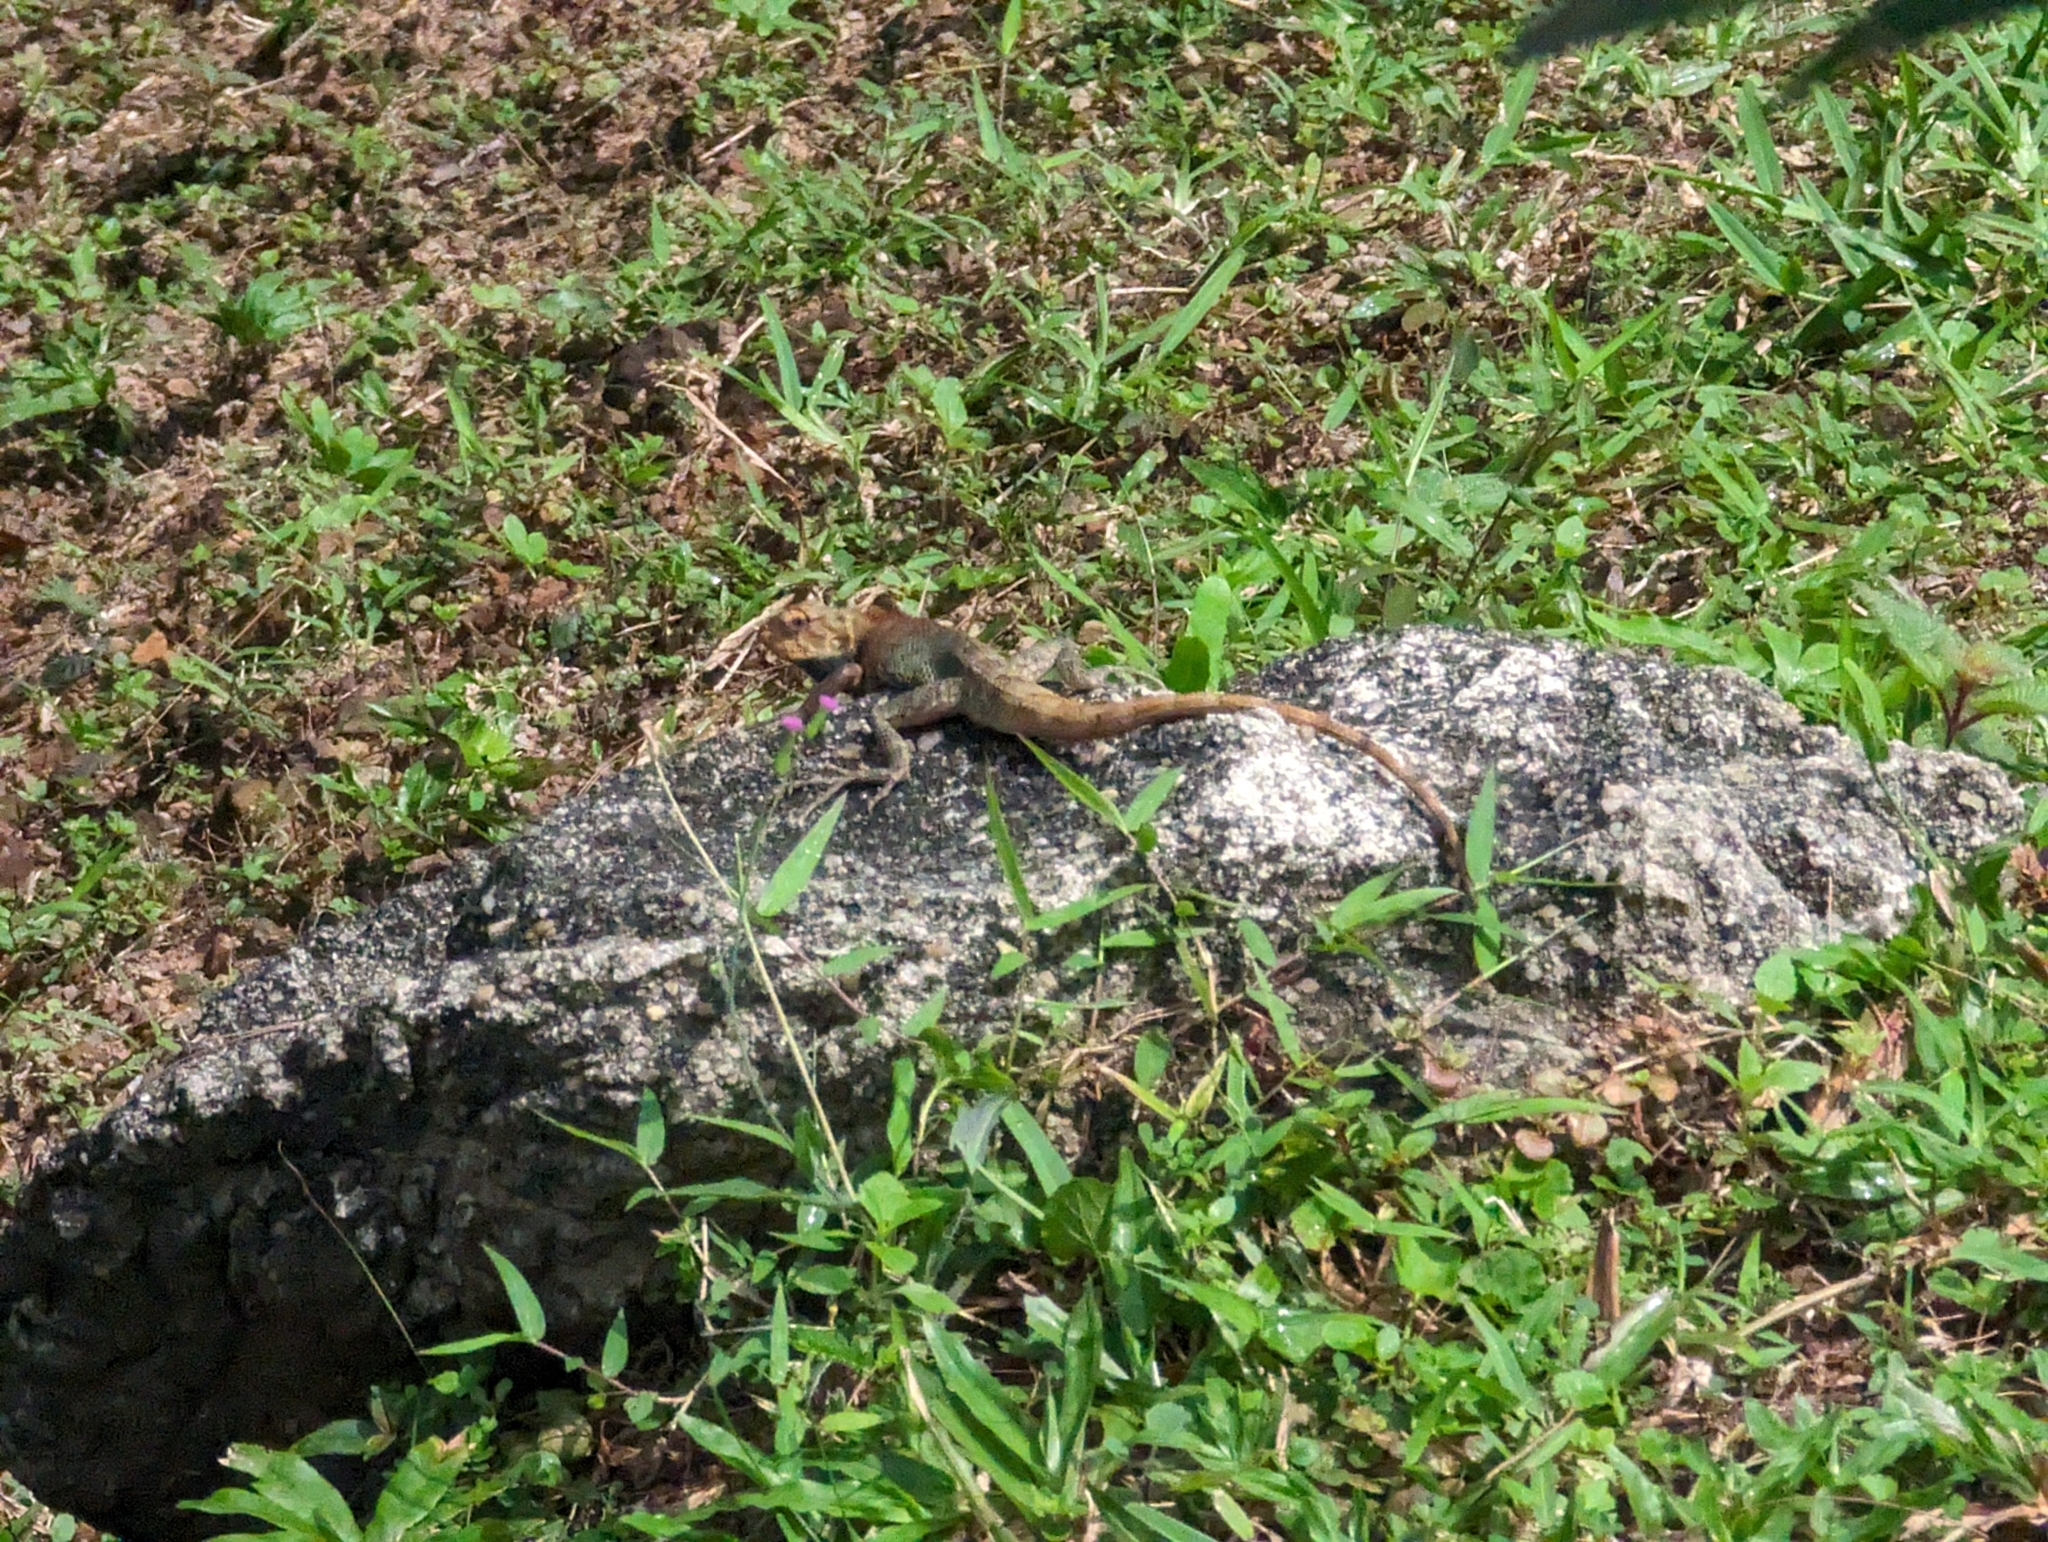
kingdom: Animalia
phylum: Chordata
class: Squamata
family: Agamidae
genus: Calotes
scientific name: Calotes versicolor
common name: Oriental garden lizard
